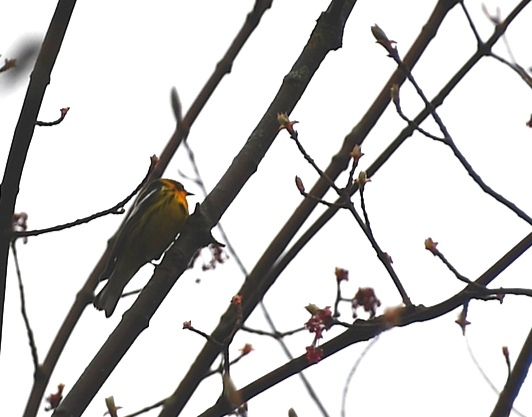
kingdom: Animalia
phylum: Chordata
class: Aves
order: Passeriformes
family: Parulidae
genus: Setophaga
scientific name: Setophaga fusca
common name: Blackburnian warbler
